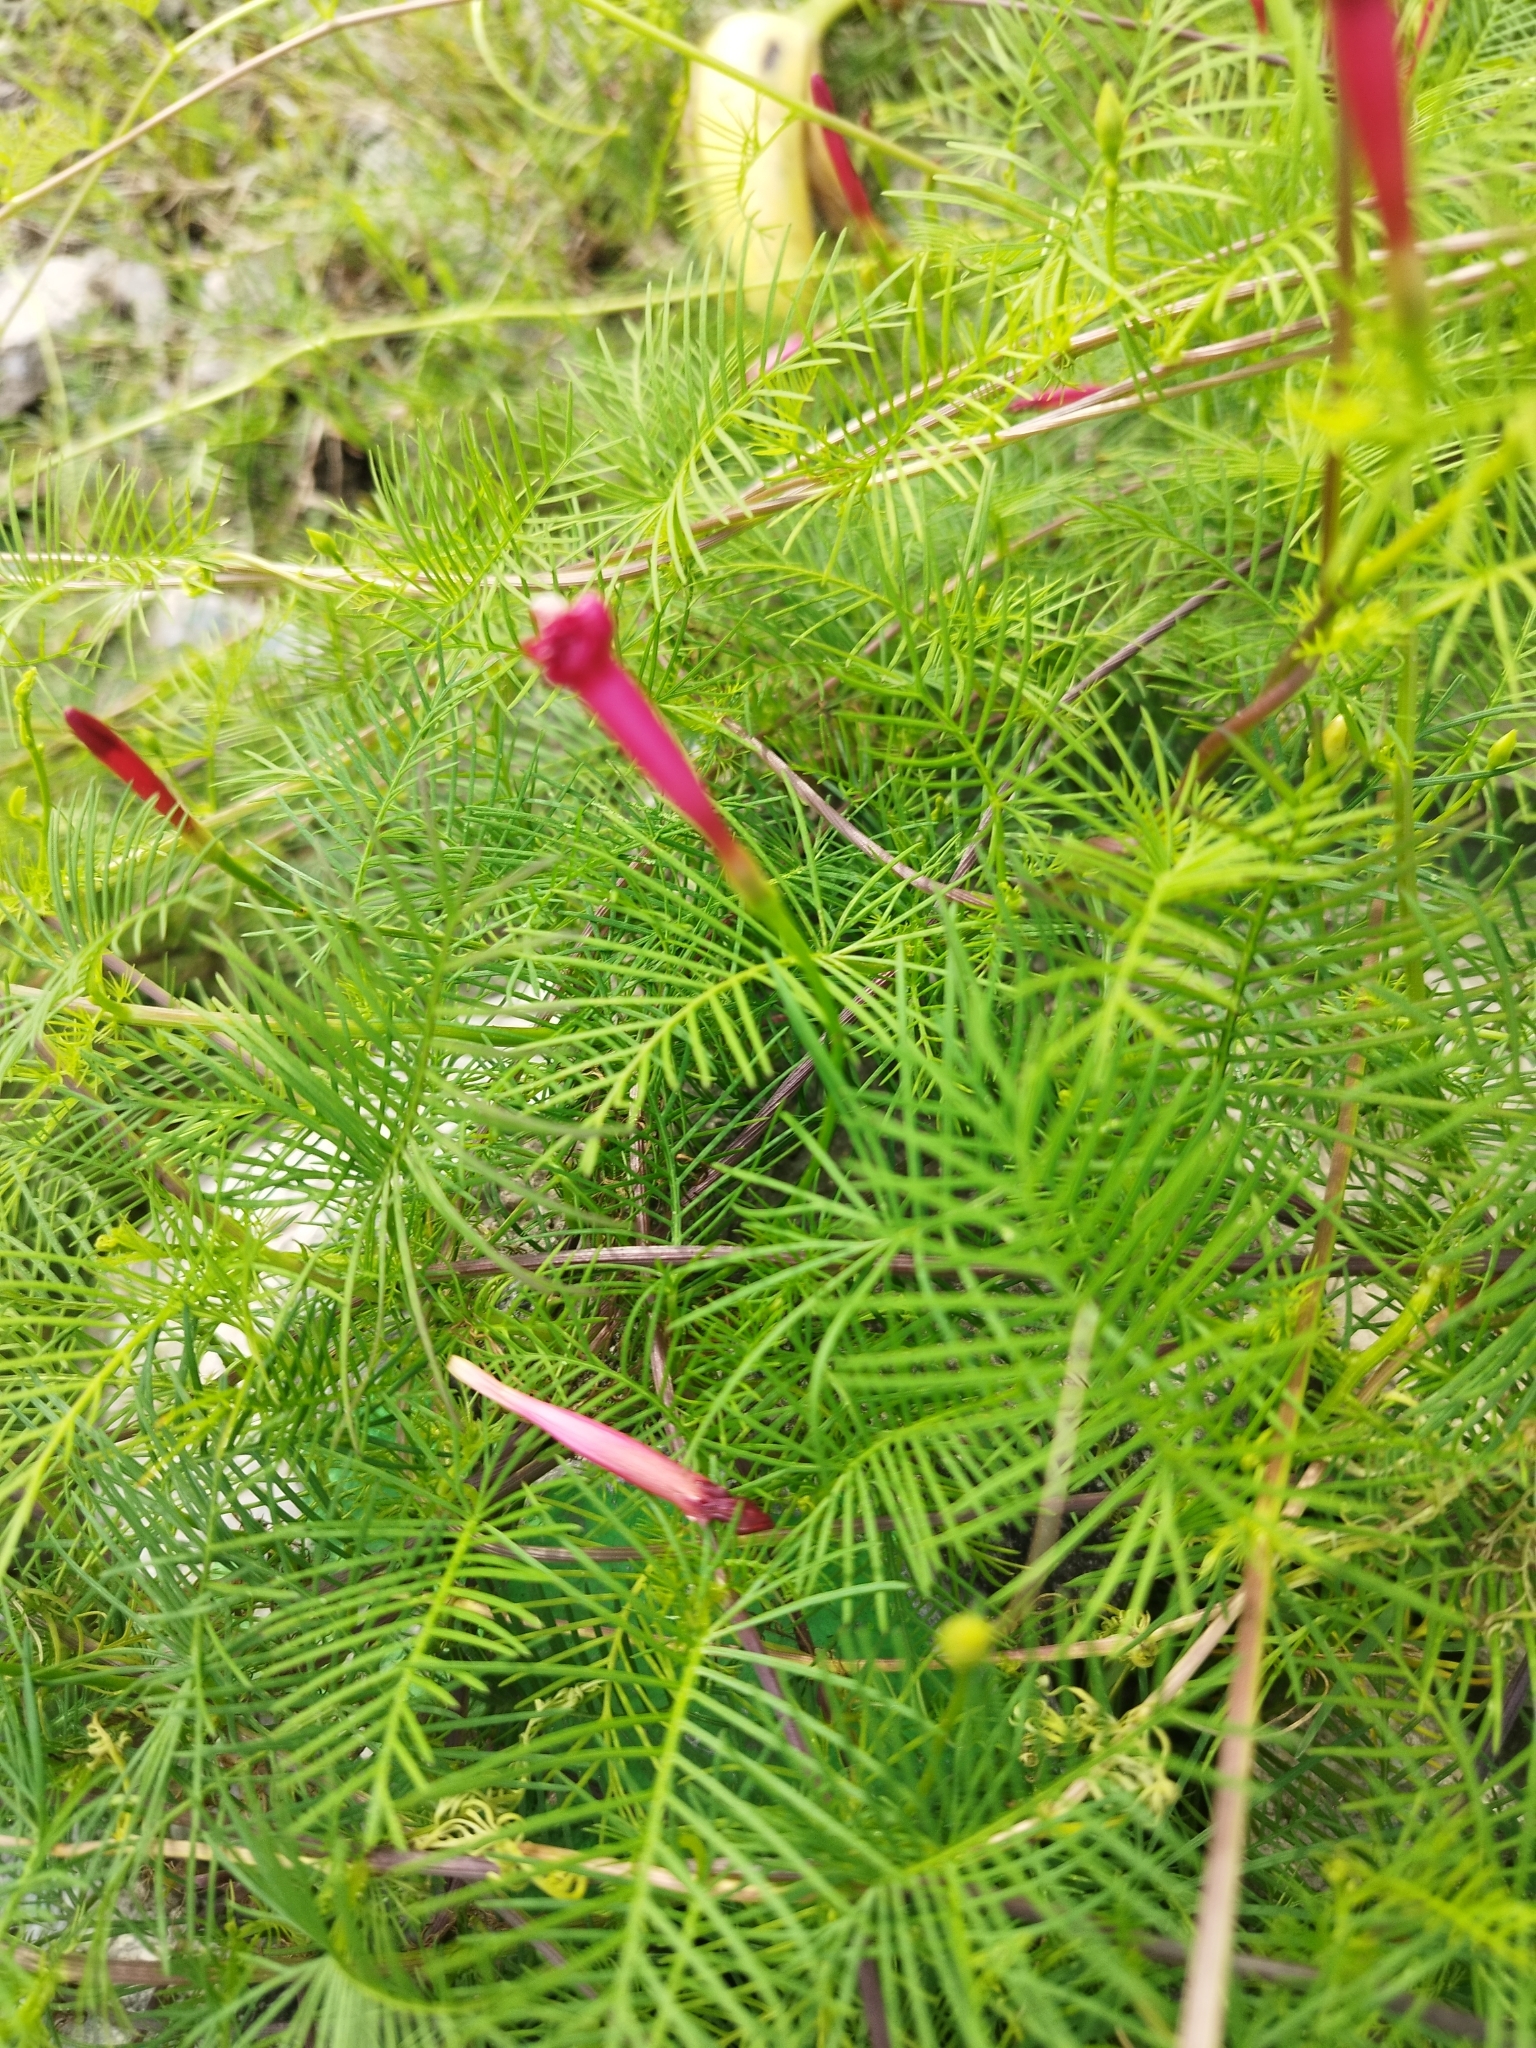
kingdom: Plantae
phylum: Tracheophyta
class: Magnoliopsida
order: Solanales
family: Convolvulaceae
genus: Ipomoea
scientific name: Ipomoea quamoclit
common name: Cypress vine
